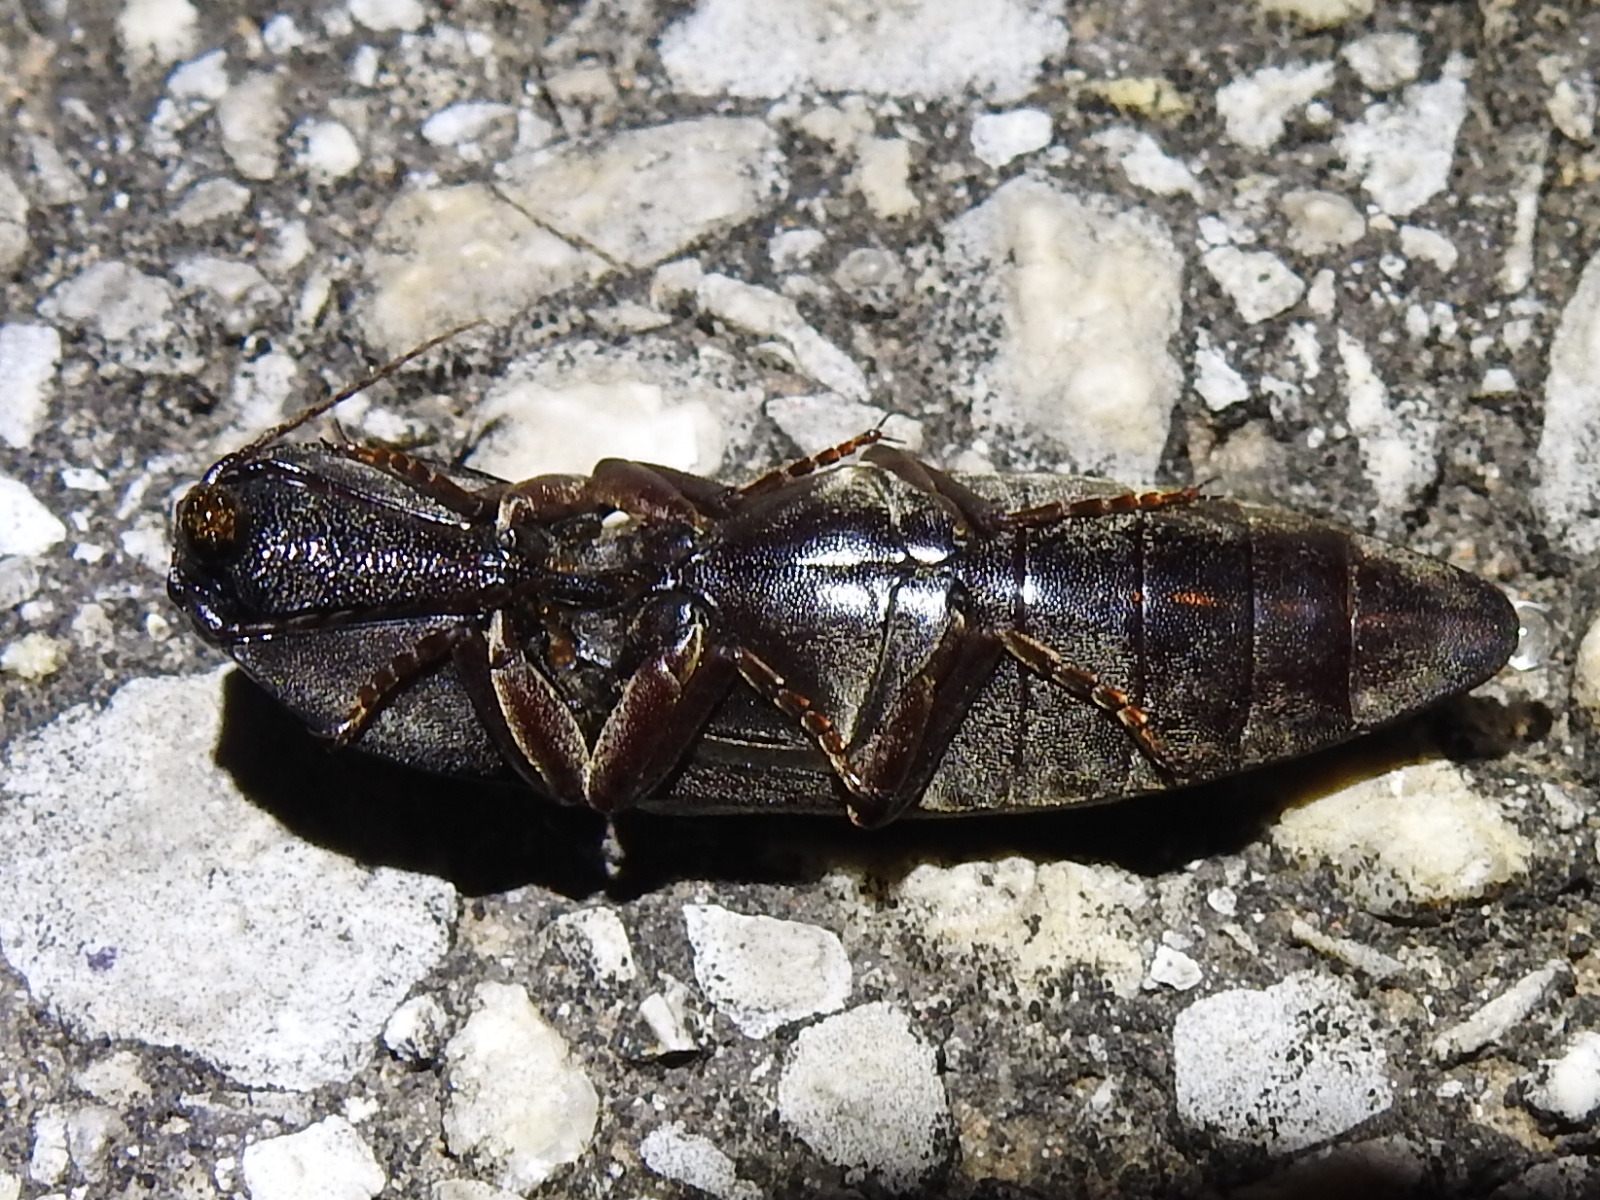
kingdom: Animalia
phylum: Arthropoda
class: Insecta
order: Coleoptera
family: Elateridae
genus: Lanelater
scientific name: Lanelater
